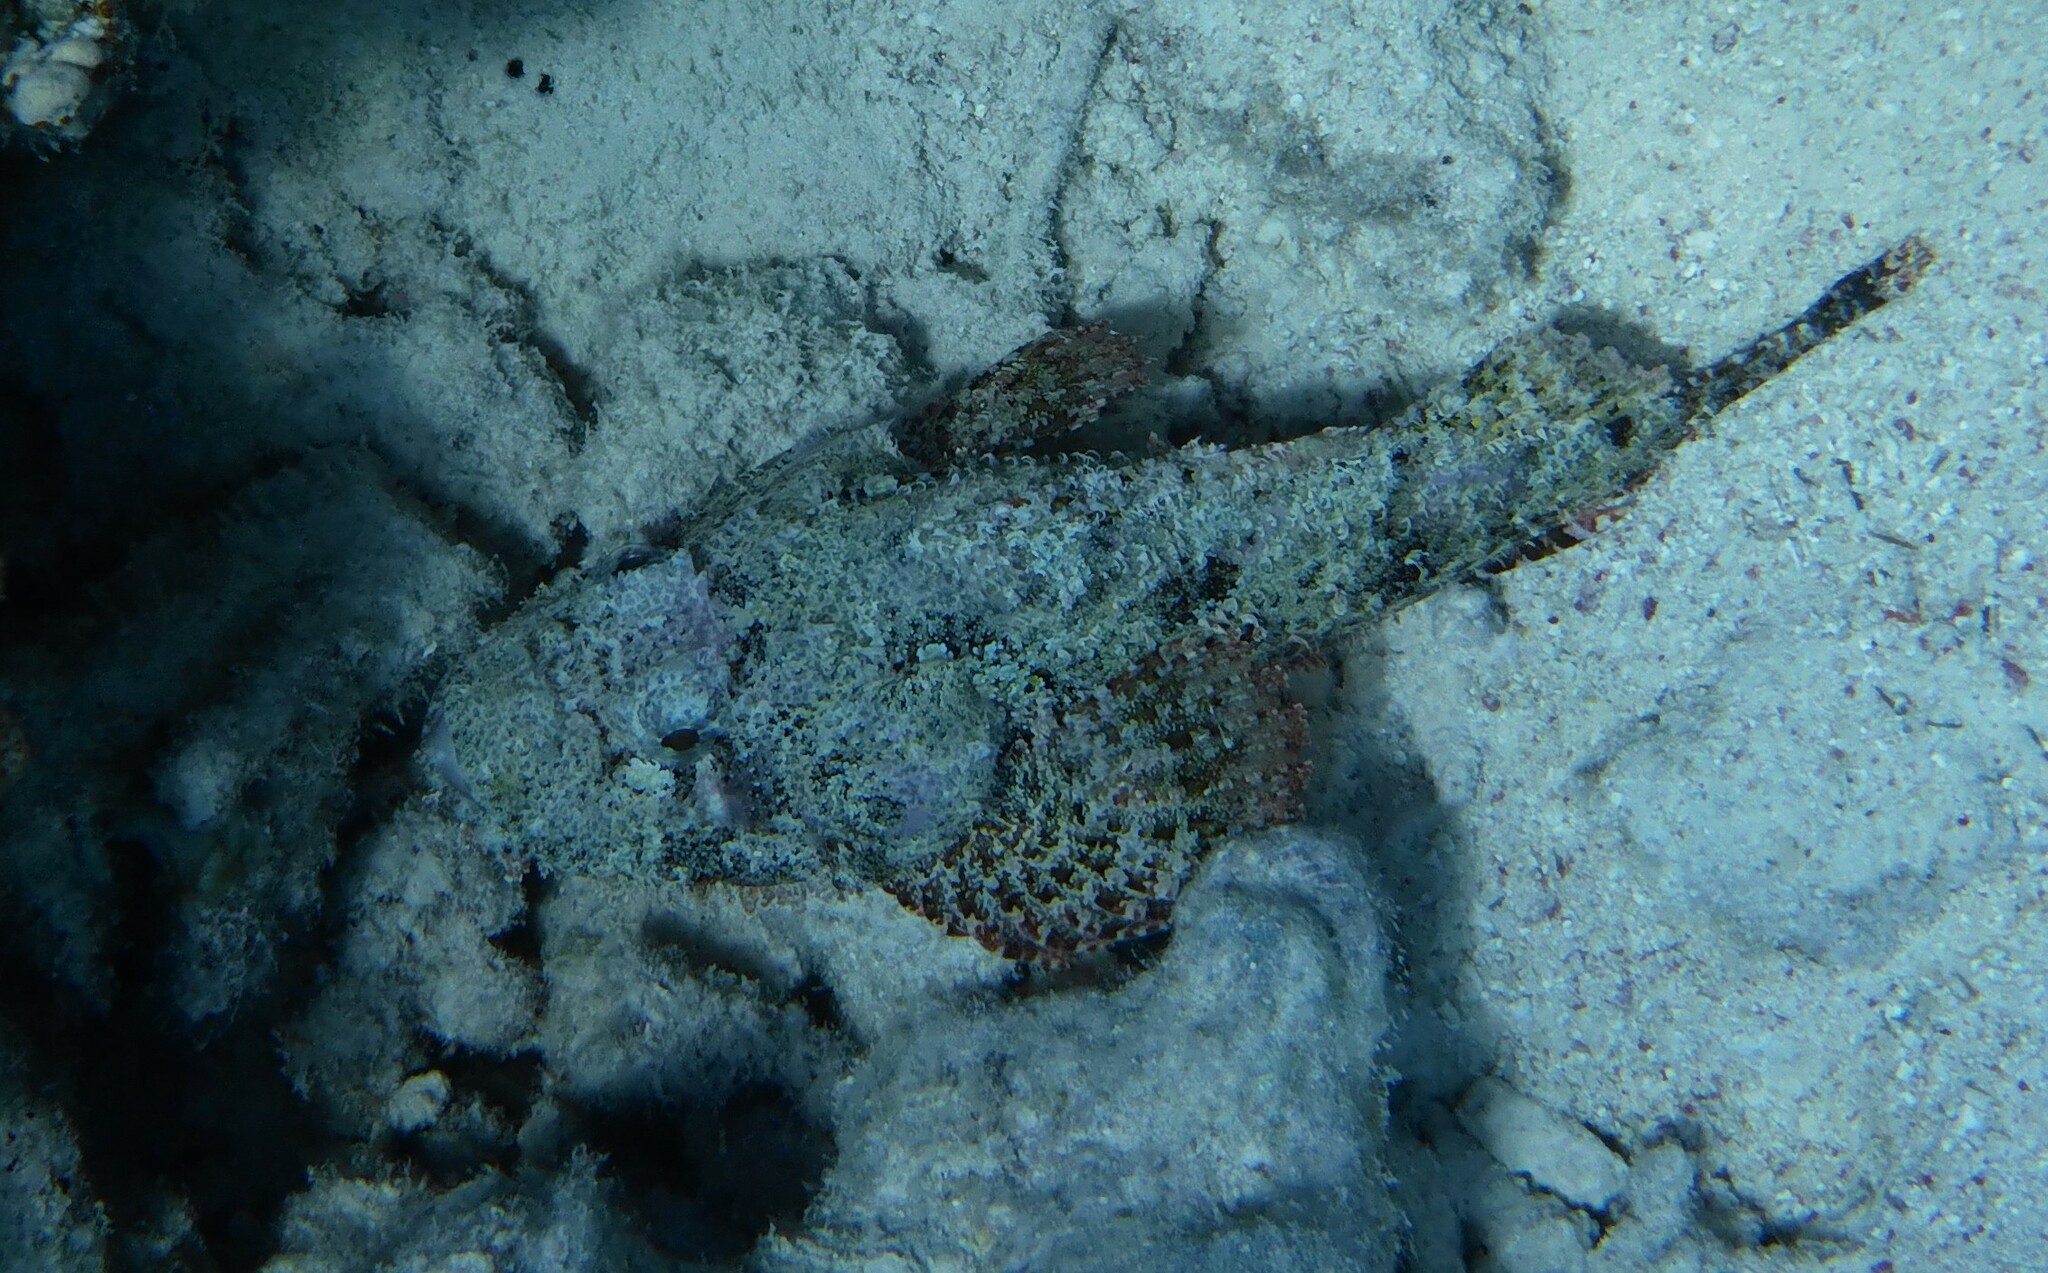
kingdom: Animalia
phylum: Chordata
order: Scorpaeniformes
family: Scorpaenidae
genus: Scorpaenopsis
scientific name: Scorpaenopsis barbata
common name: Bearded scorpionfish
